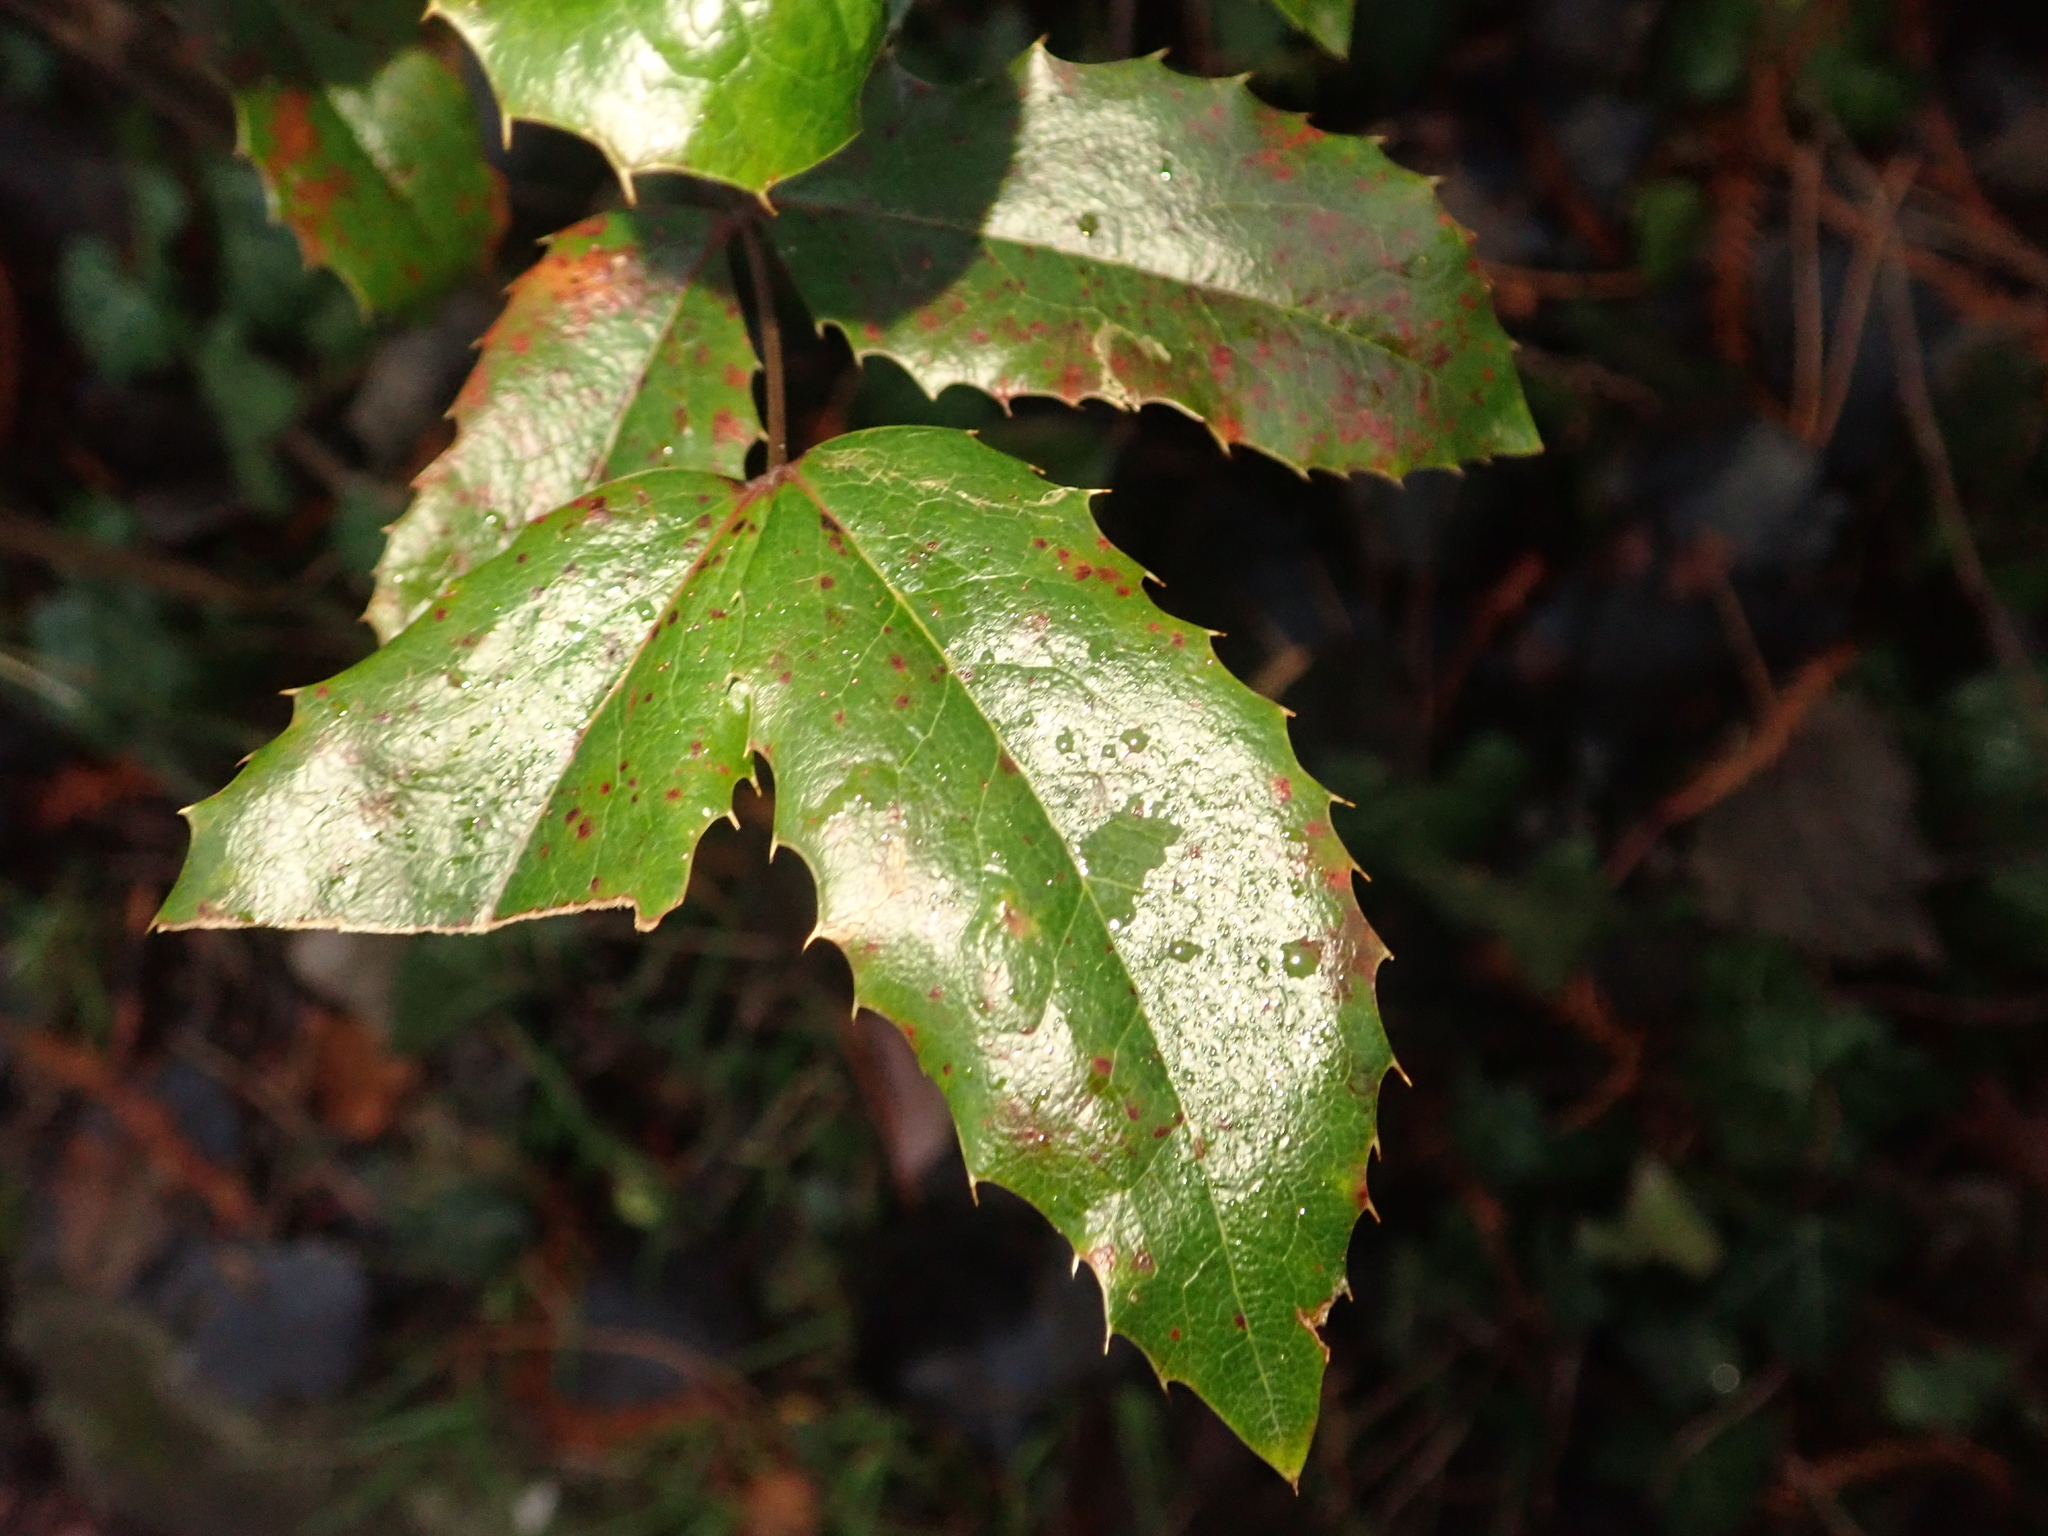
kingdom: Plantae
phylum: Tracheophyta
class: Magnoliopsida
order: Ranunculales
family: Berberidaceae
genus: Mahonia
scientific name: Mahonia aquifolium
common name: Oregon-grape
